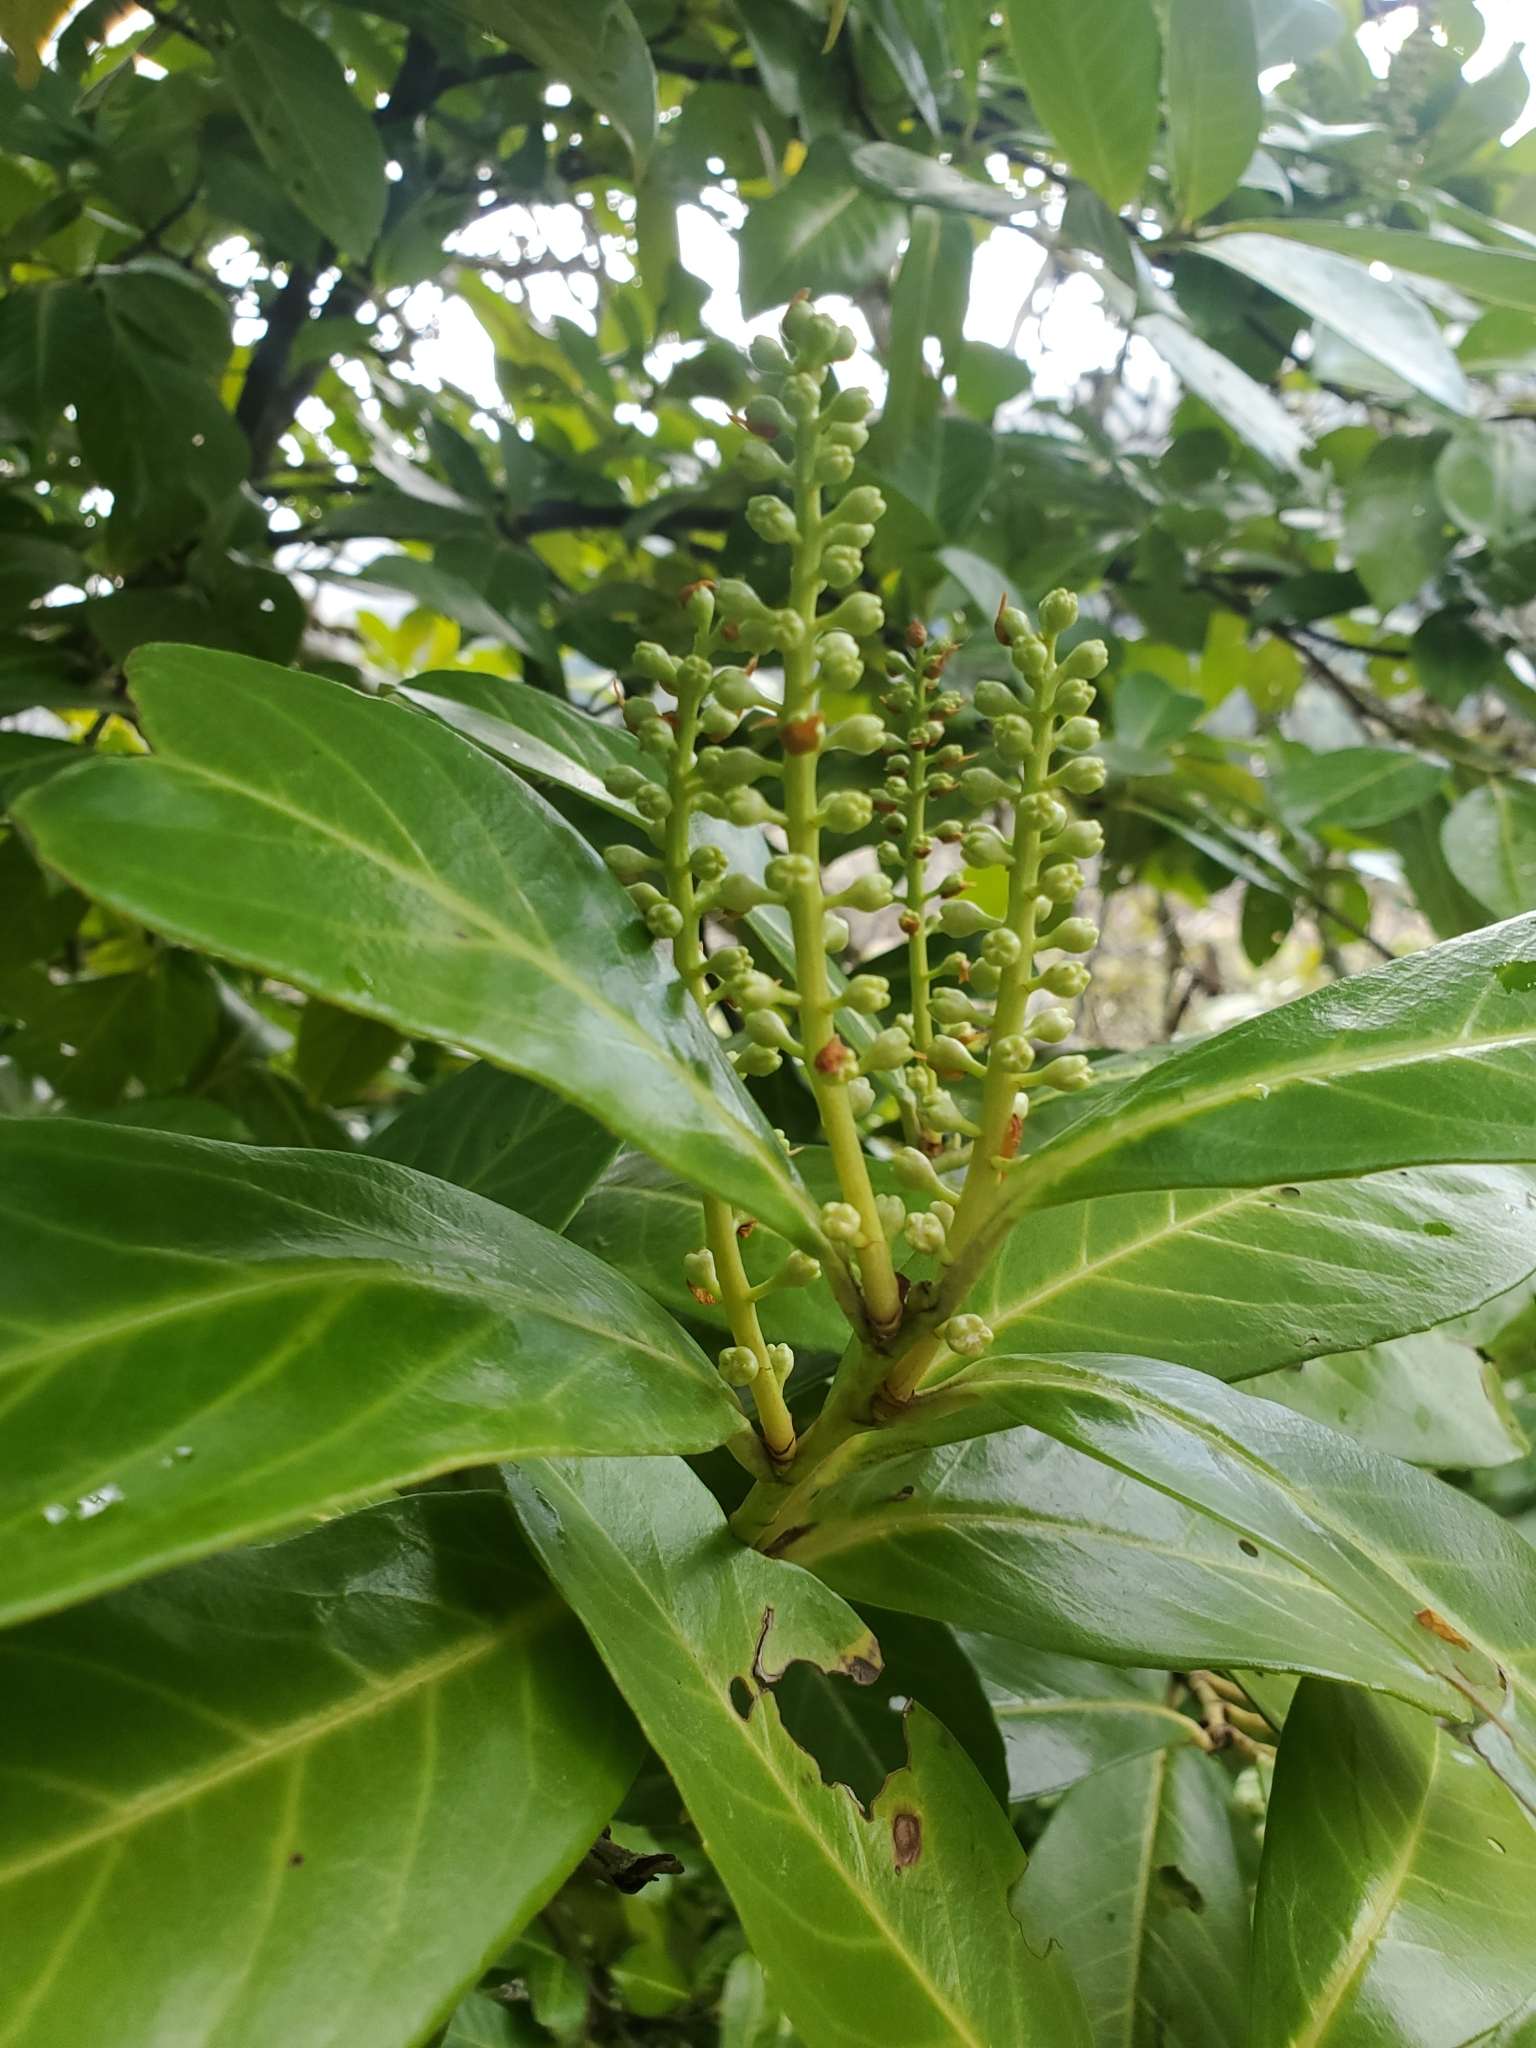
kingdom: Plantae
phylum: Tracheophyta
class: Magnoliopsida
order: Rosales
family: Rosaceae
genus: Prunus
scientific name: Prunus laurocerasus
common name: Cherry laurel
